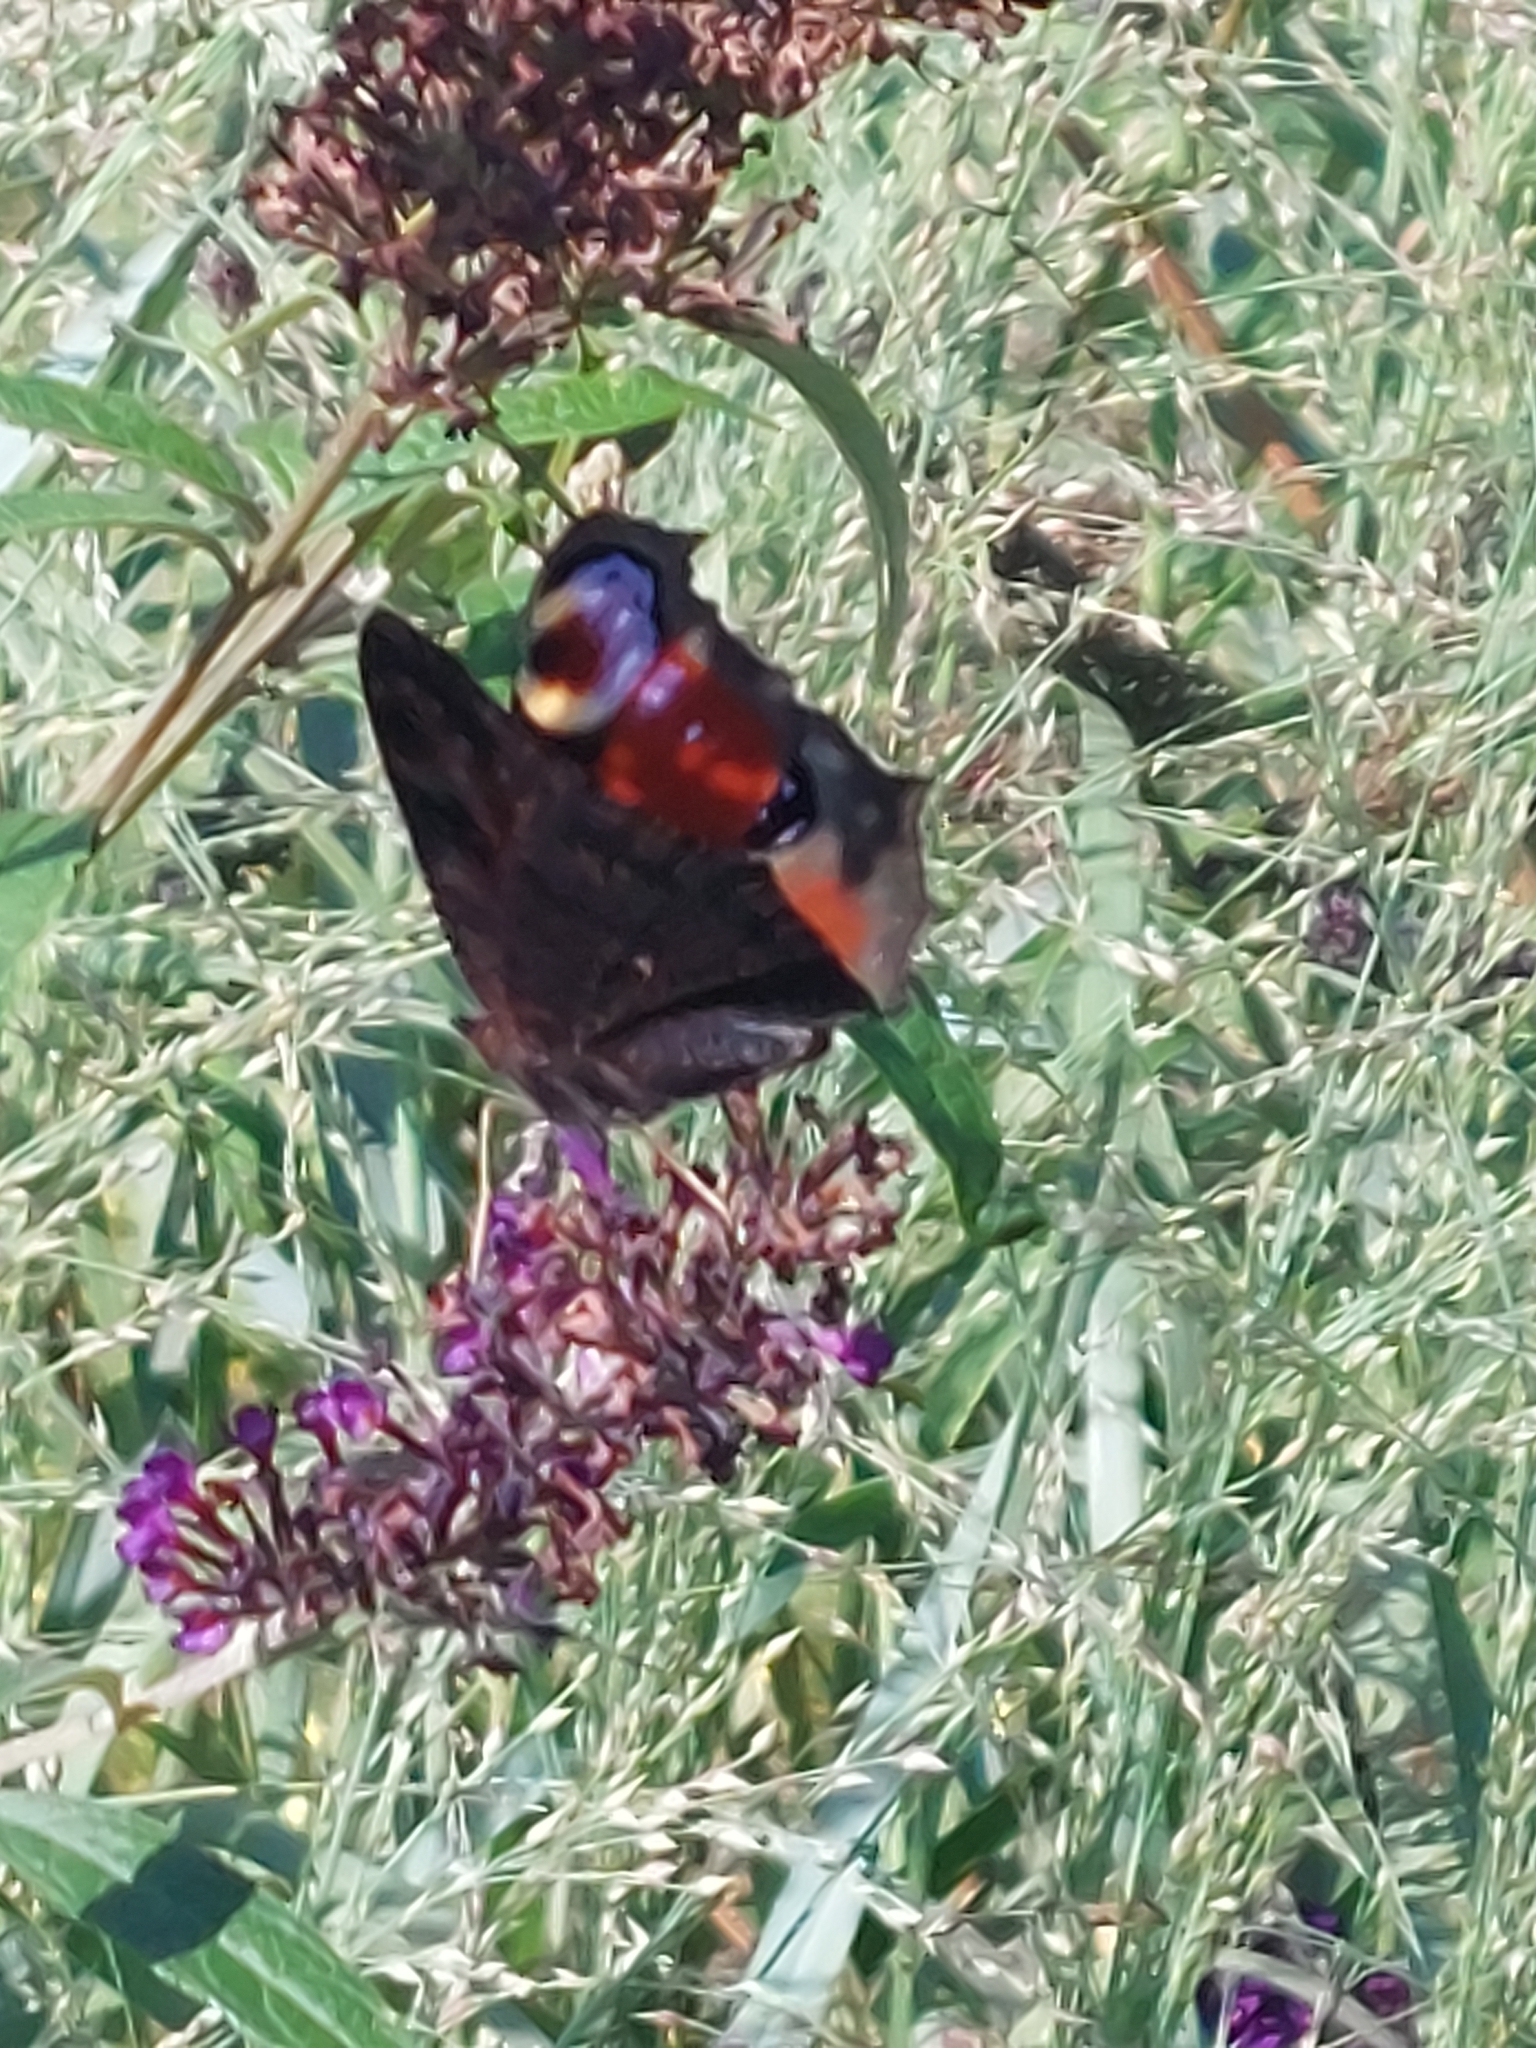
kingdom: Animalia
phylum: Arthropoda
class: Insecta
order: Lepidoptera
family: Nymphalidae
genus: Aglais
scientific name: Aglais io
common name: Peacock
